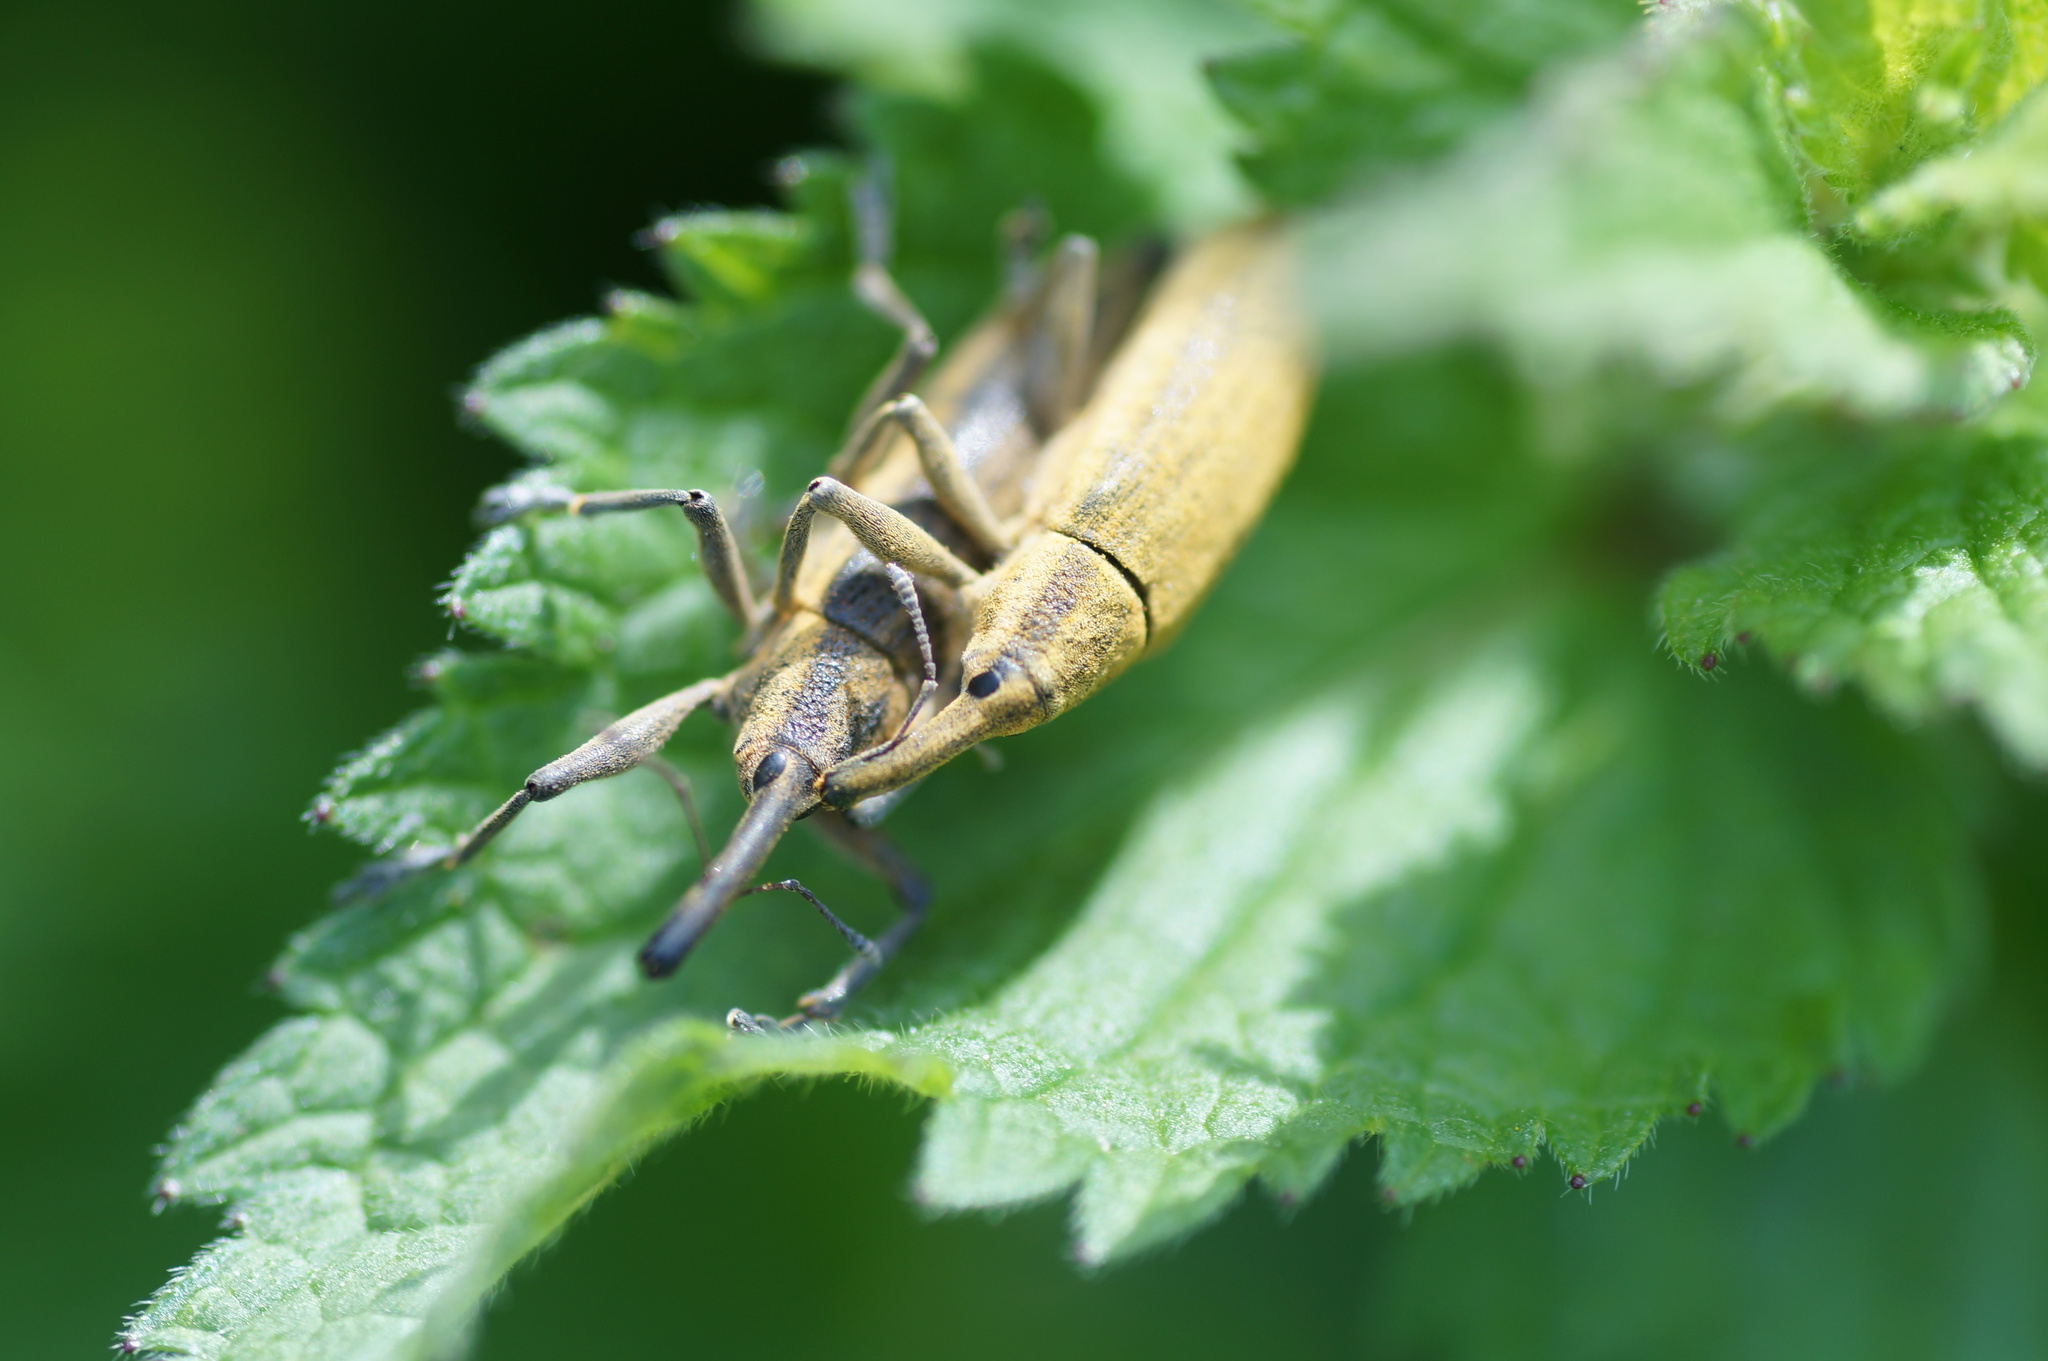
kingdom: Animalia
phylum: Arthropoda
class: Insecta
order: Coleoptera
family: Curculionidae
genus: Lixus
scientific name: Lixus iridis
